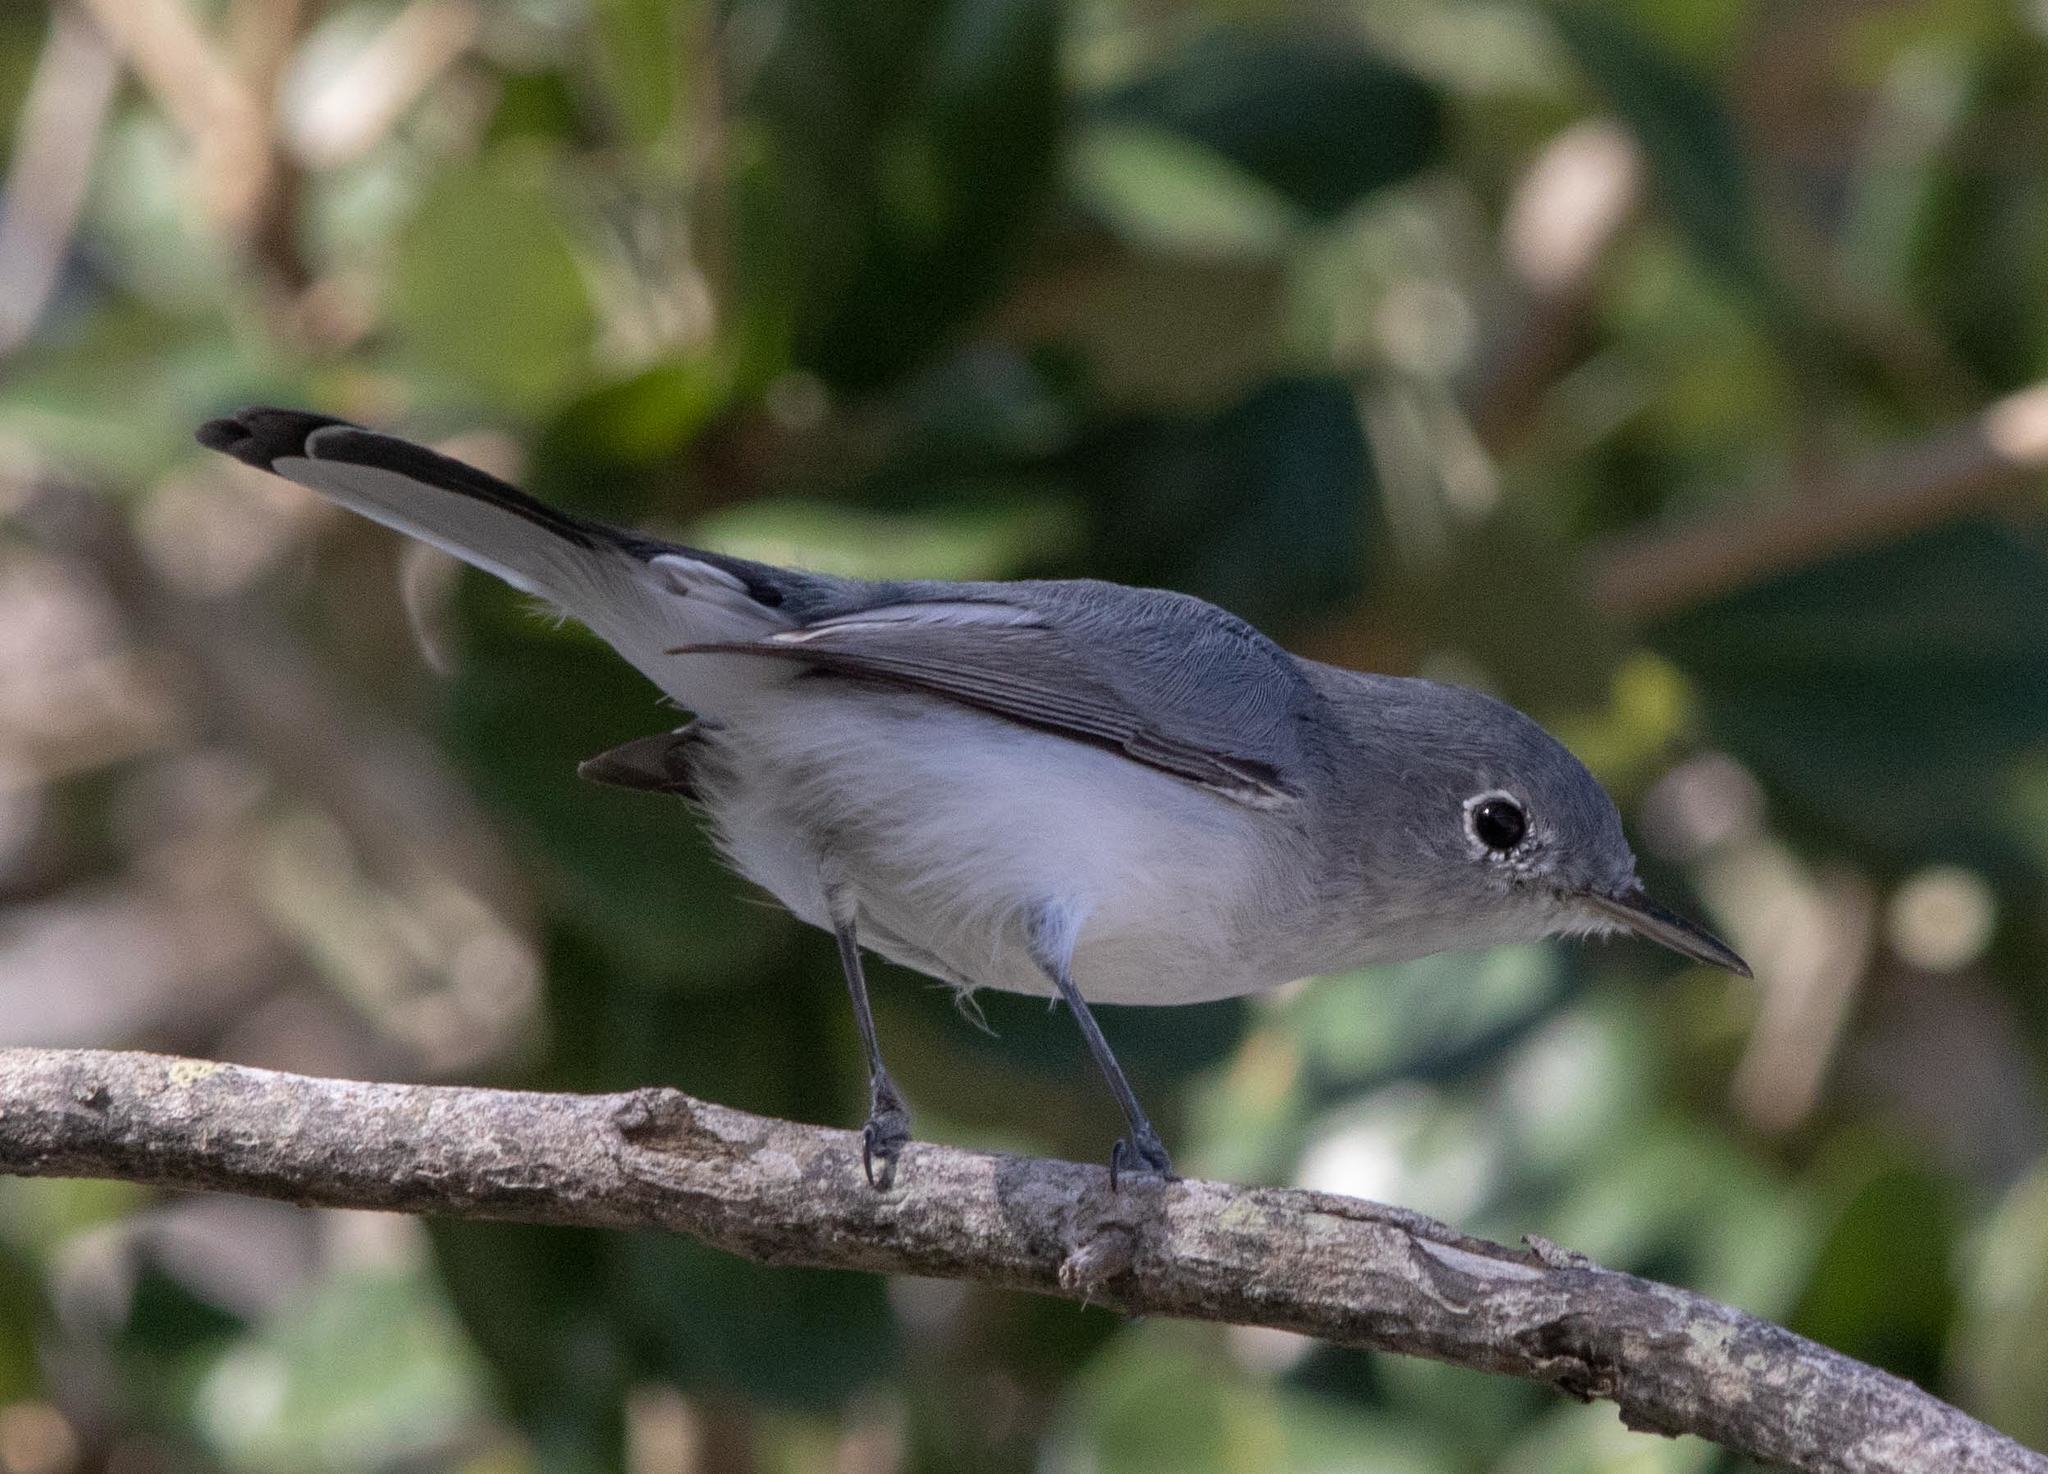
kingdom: Animalia
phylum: Chordata
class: Aves
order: Passeriformes
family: Polioptilidae
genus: Polioptila
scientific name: Polioptila caerulea
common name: Blue-gray gnatcatcher
